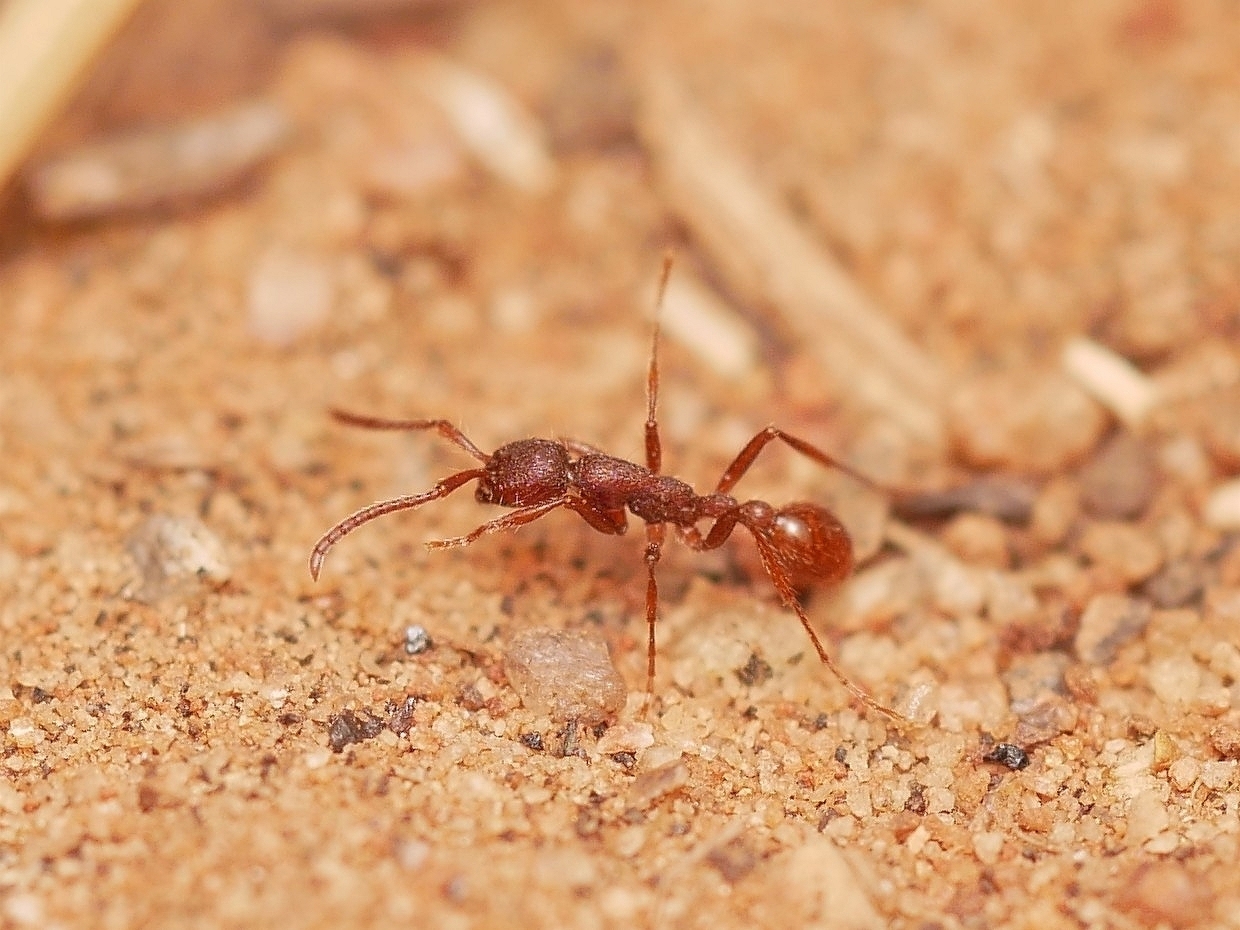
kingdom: Animalia
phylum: Arthropoda
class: Insecta
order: Hymenoptera
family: Formicidae
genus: Neivamyrmex
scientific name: Neivamyrmex nigrescens
